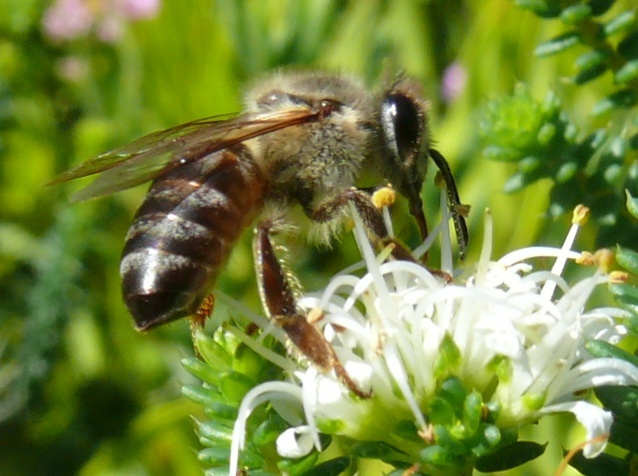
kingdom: Animalia
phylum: Arthropoda
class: Insecta
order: Hymenoptera
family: Apidae
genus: Apis
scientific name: Apis mellifera
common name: Honey bee
